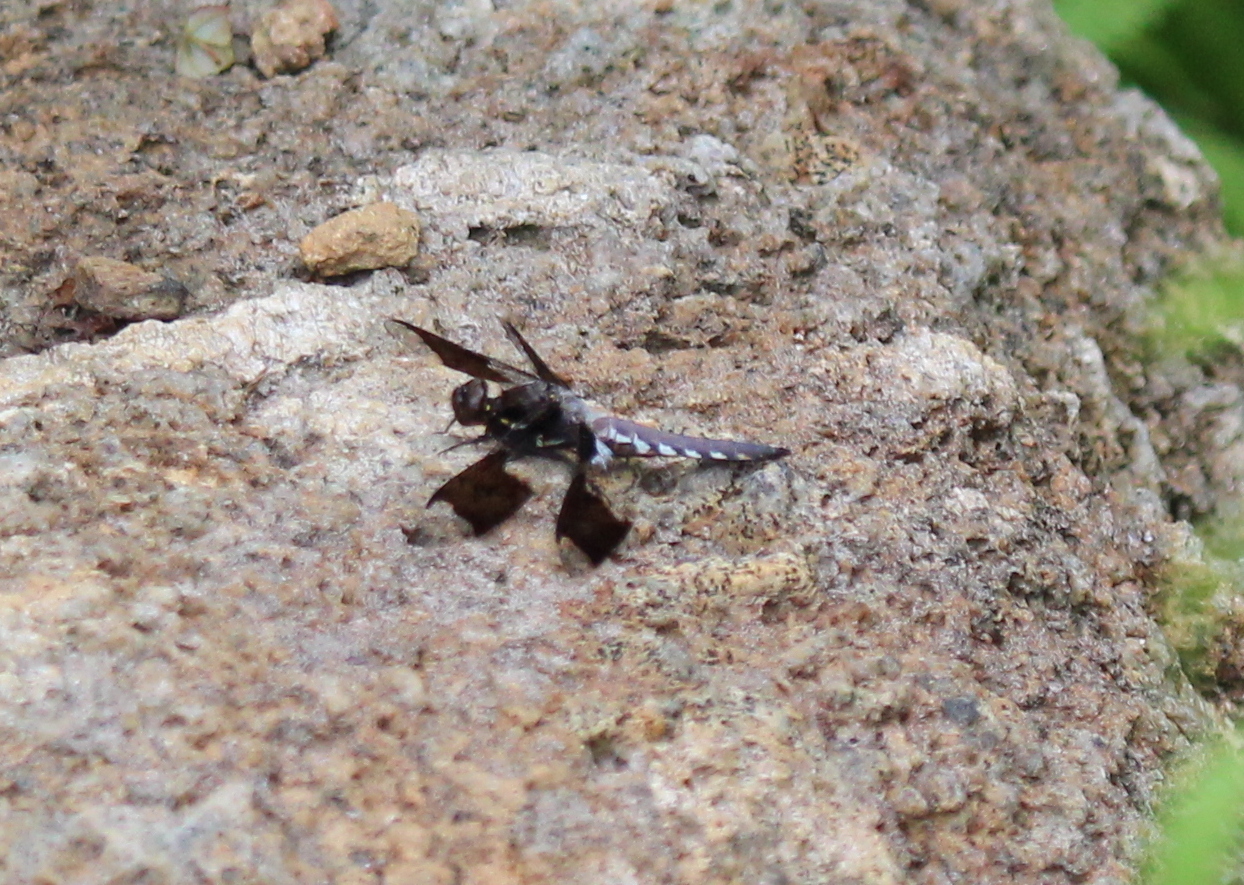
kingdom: Animalia
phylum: Arthropoda
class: Insecta
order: Odonata
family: Libellulidae
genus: Plathemis
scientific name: Plathemis lydia
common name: Common whitetail
